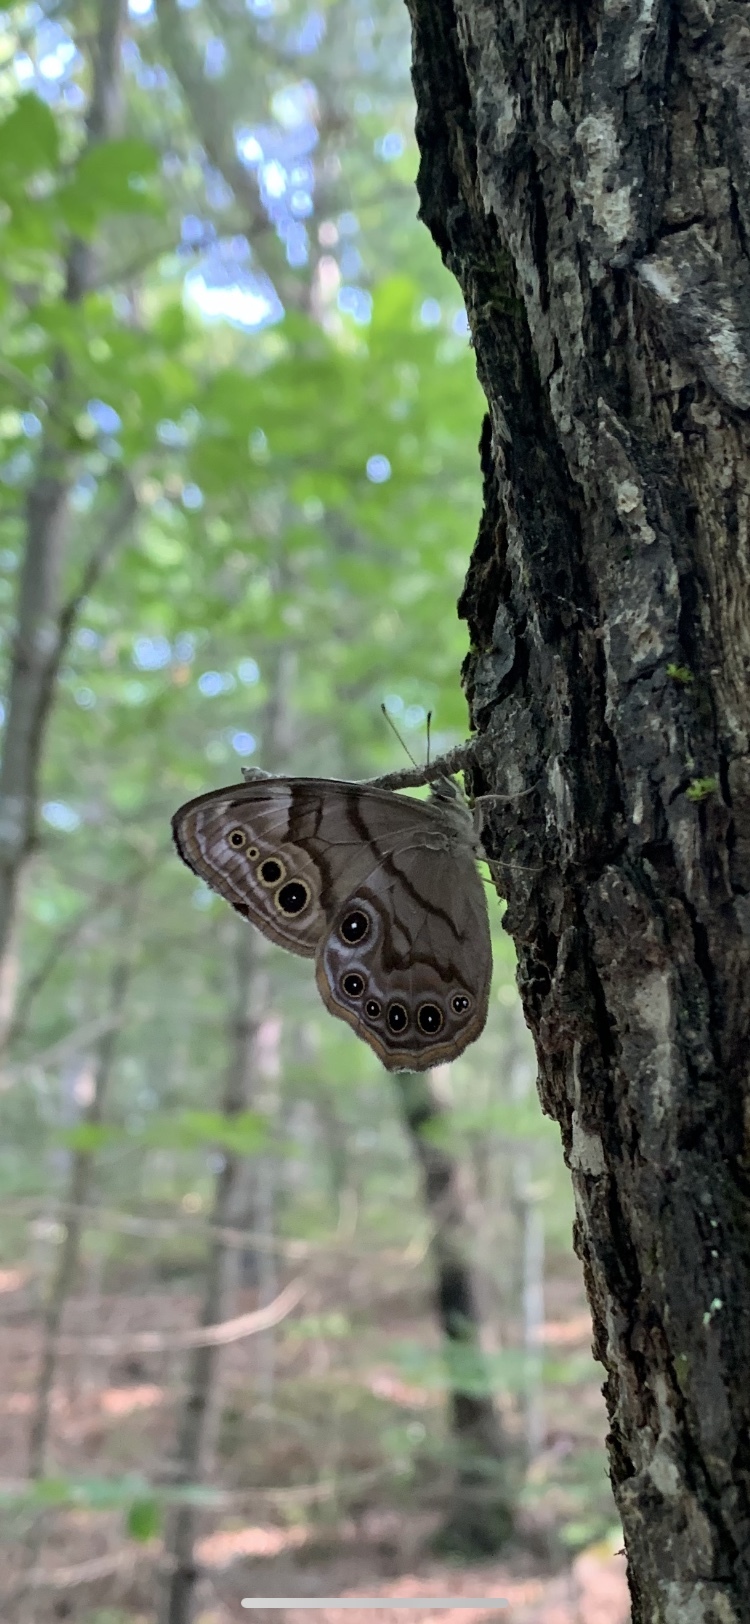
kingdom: Animalia
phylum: Arthropoda
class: Insecta
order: Lepidoptera
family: Nymphalidae
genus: Lethe
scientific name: Lethe anthedon
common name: Northern pearly-eye
